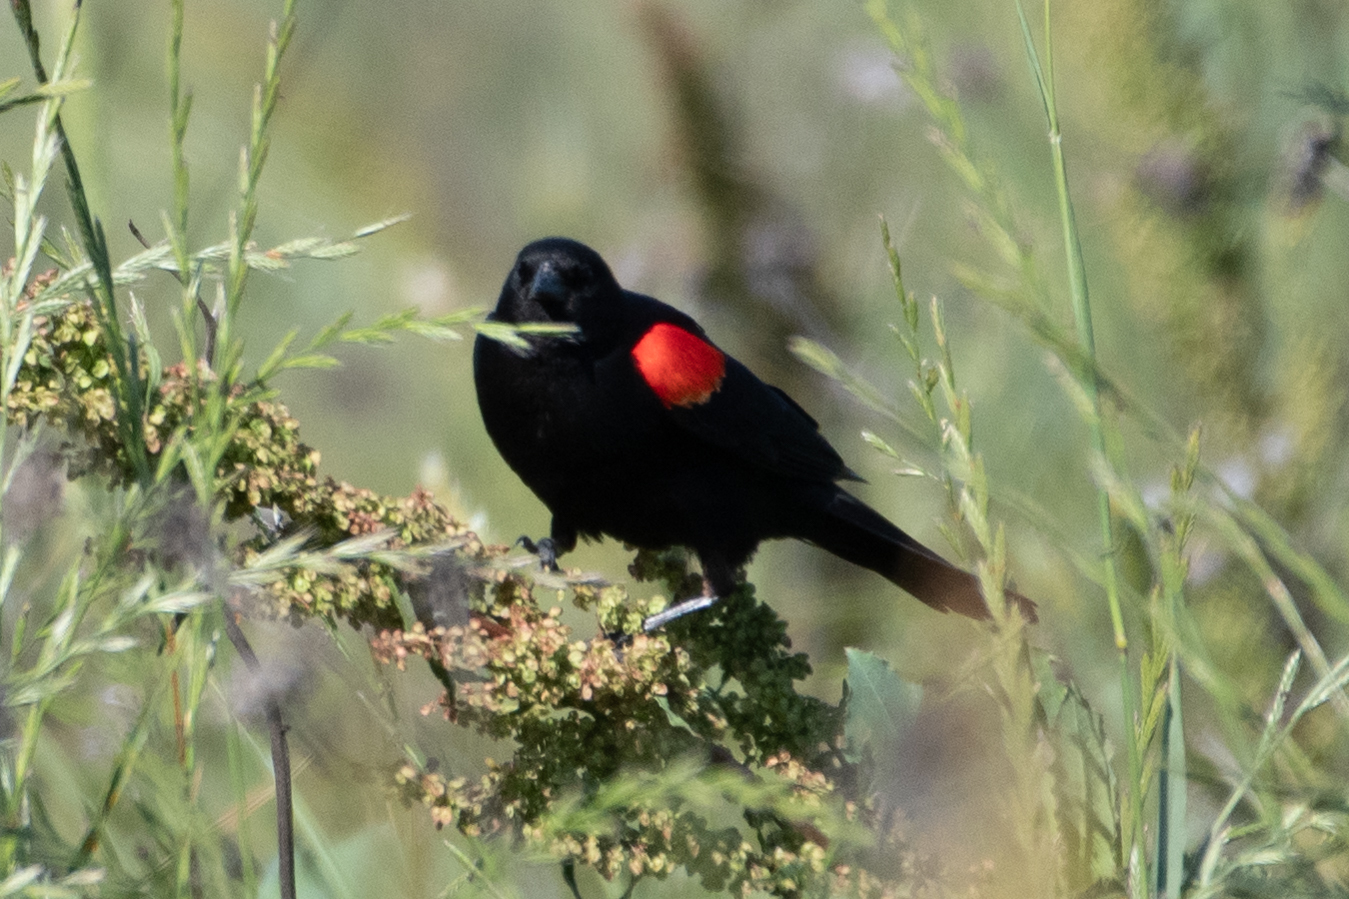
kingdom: Animalia
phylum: Chordata
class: Aves
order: Passeriformes
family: Icteridae
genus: Agelaius
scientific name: Agelaius phoeniceus
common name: Red-winged blackbird
